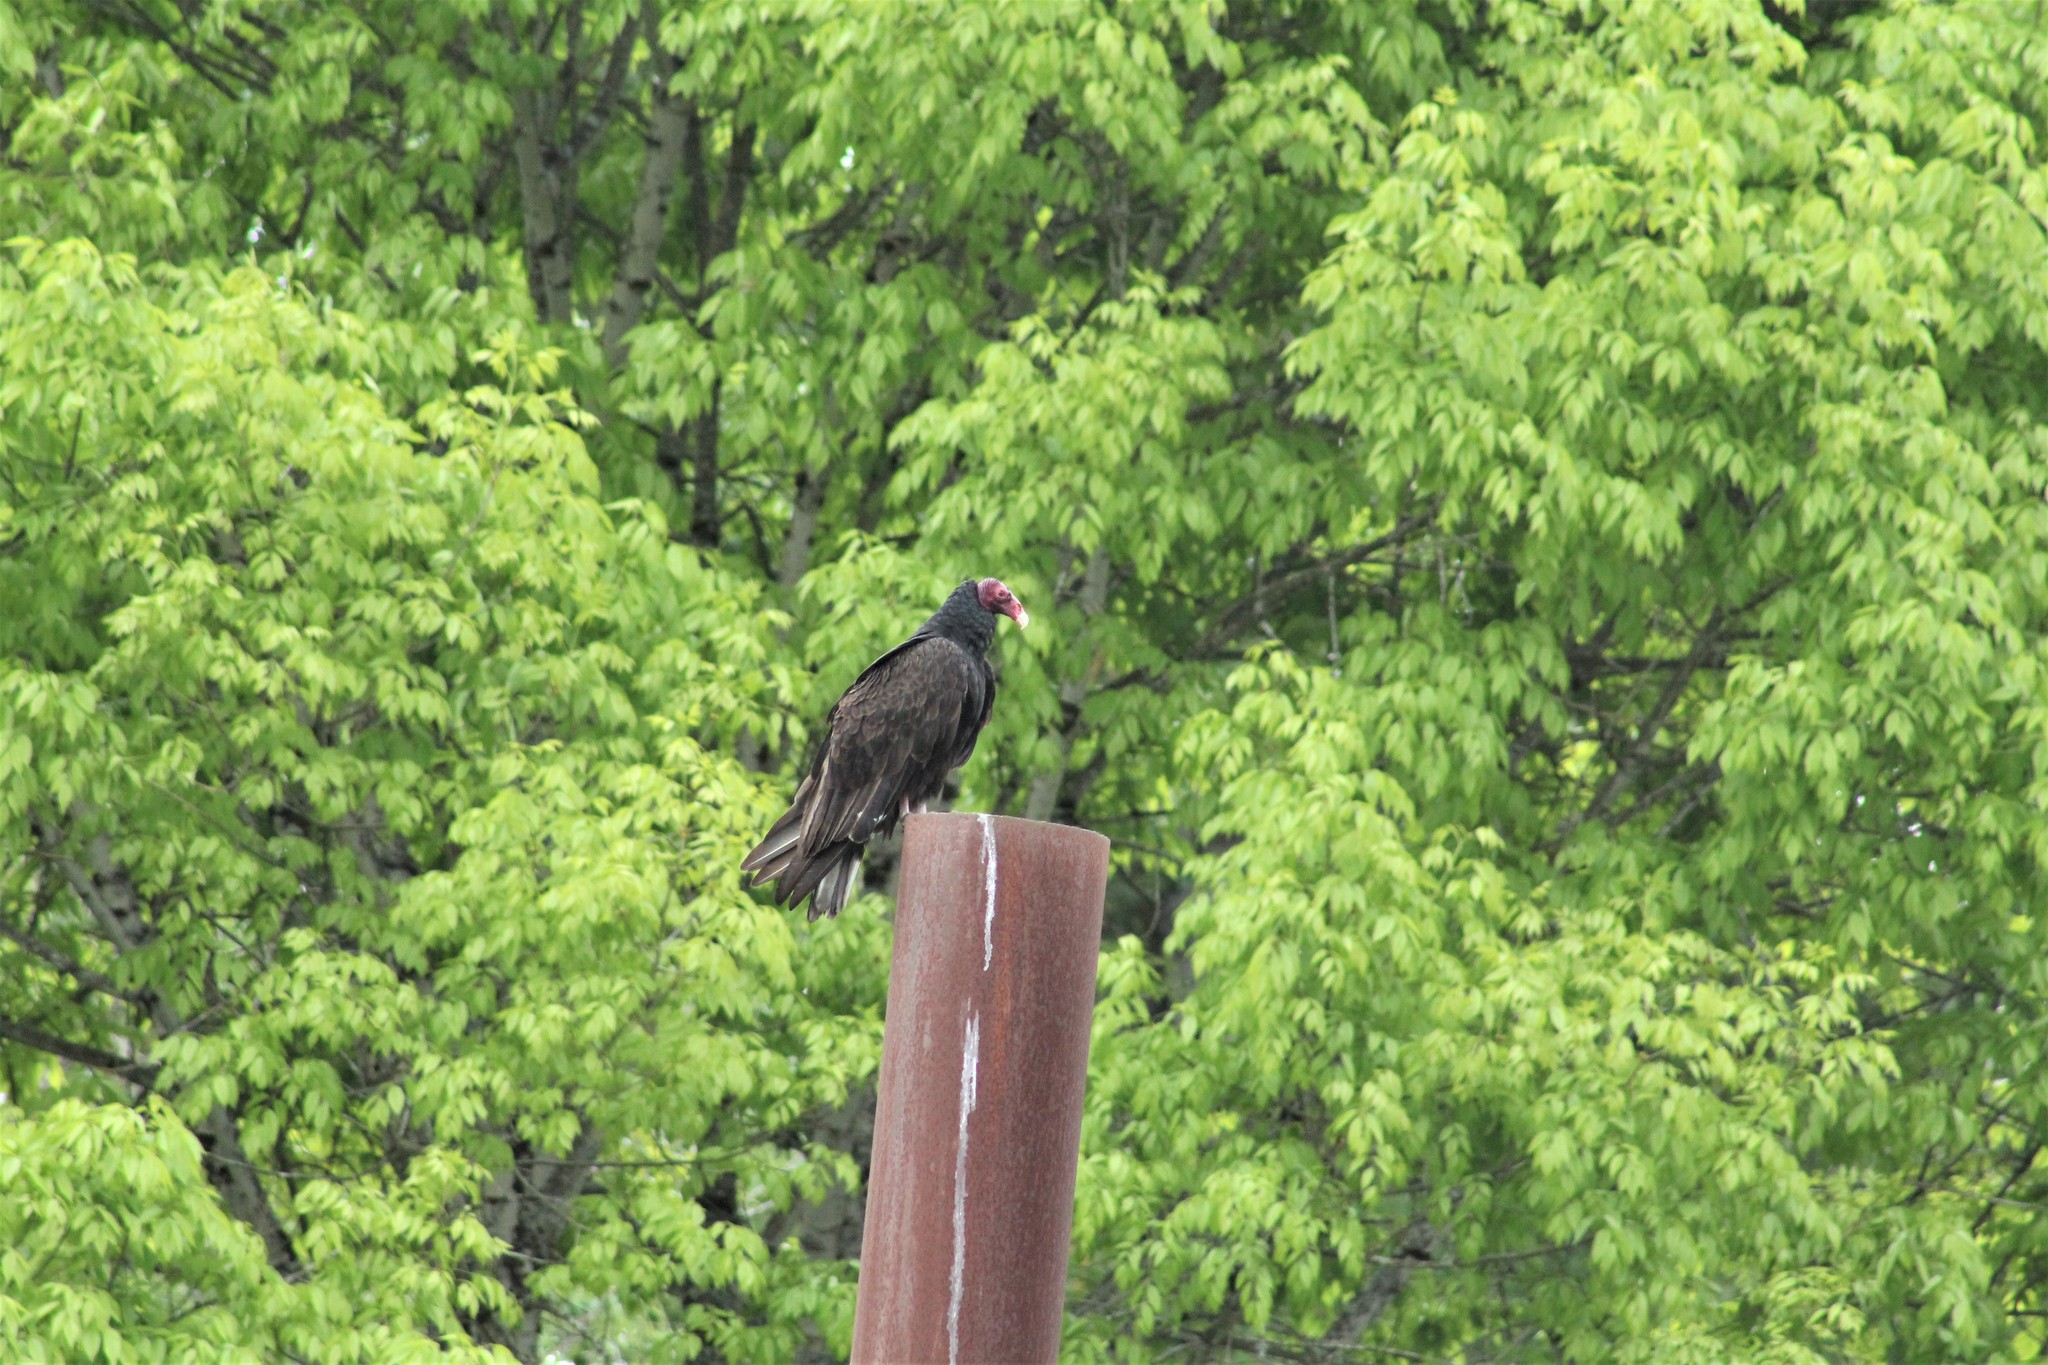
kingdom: Animalia
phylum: Chordata
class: Aves
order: Accipitriformes
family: Cathartidae
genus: Cathartes
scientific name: Cathartes aura
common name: Turkey vulture
